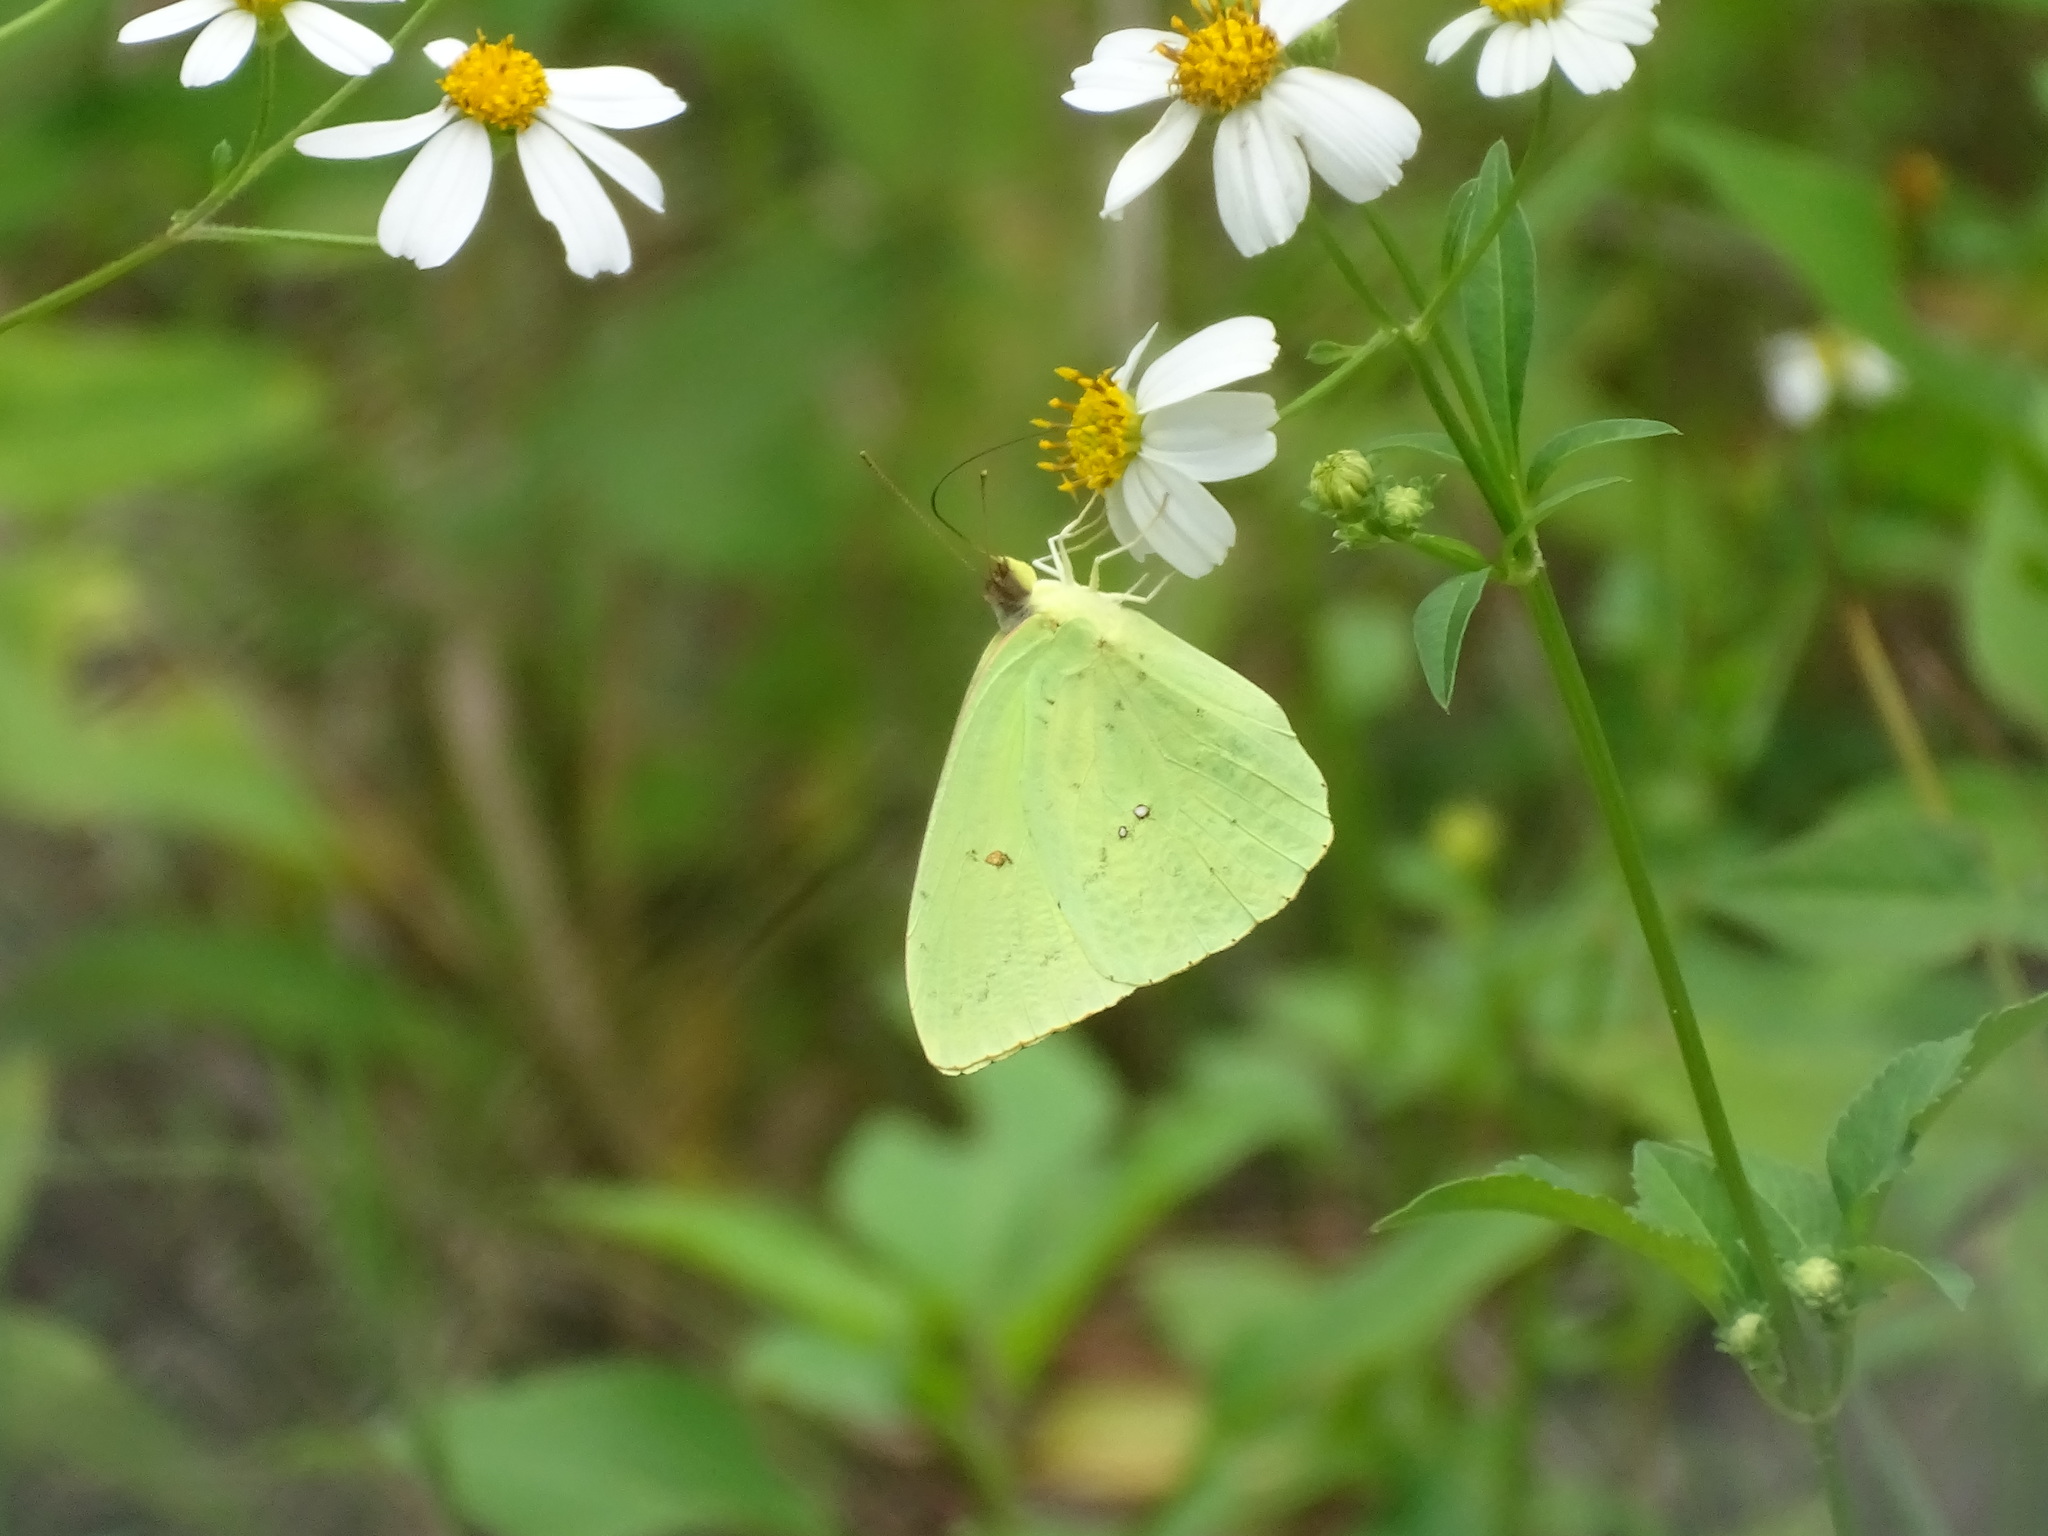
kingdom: Animalia
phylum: Arthropoda
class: Insecta
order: Lepidoptera
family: Pieridae
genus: Phoebis
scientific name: Phoebis sennae
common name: Cloudless sulphur
